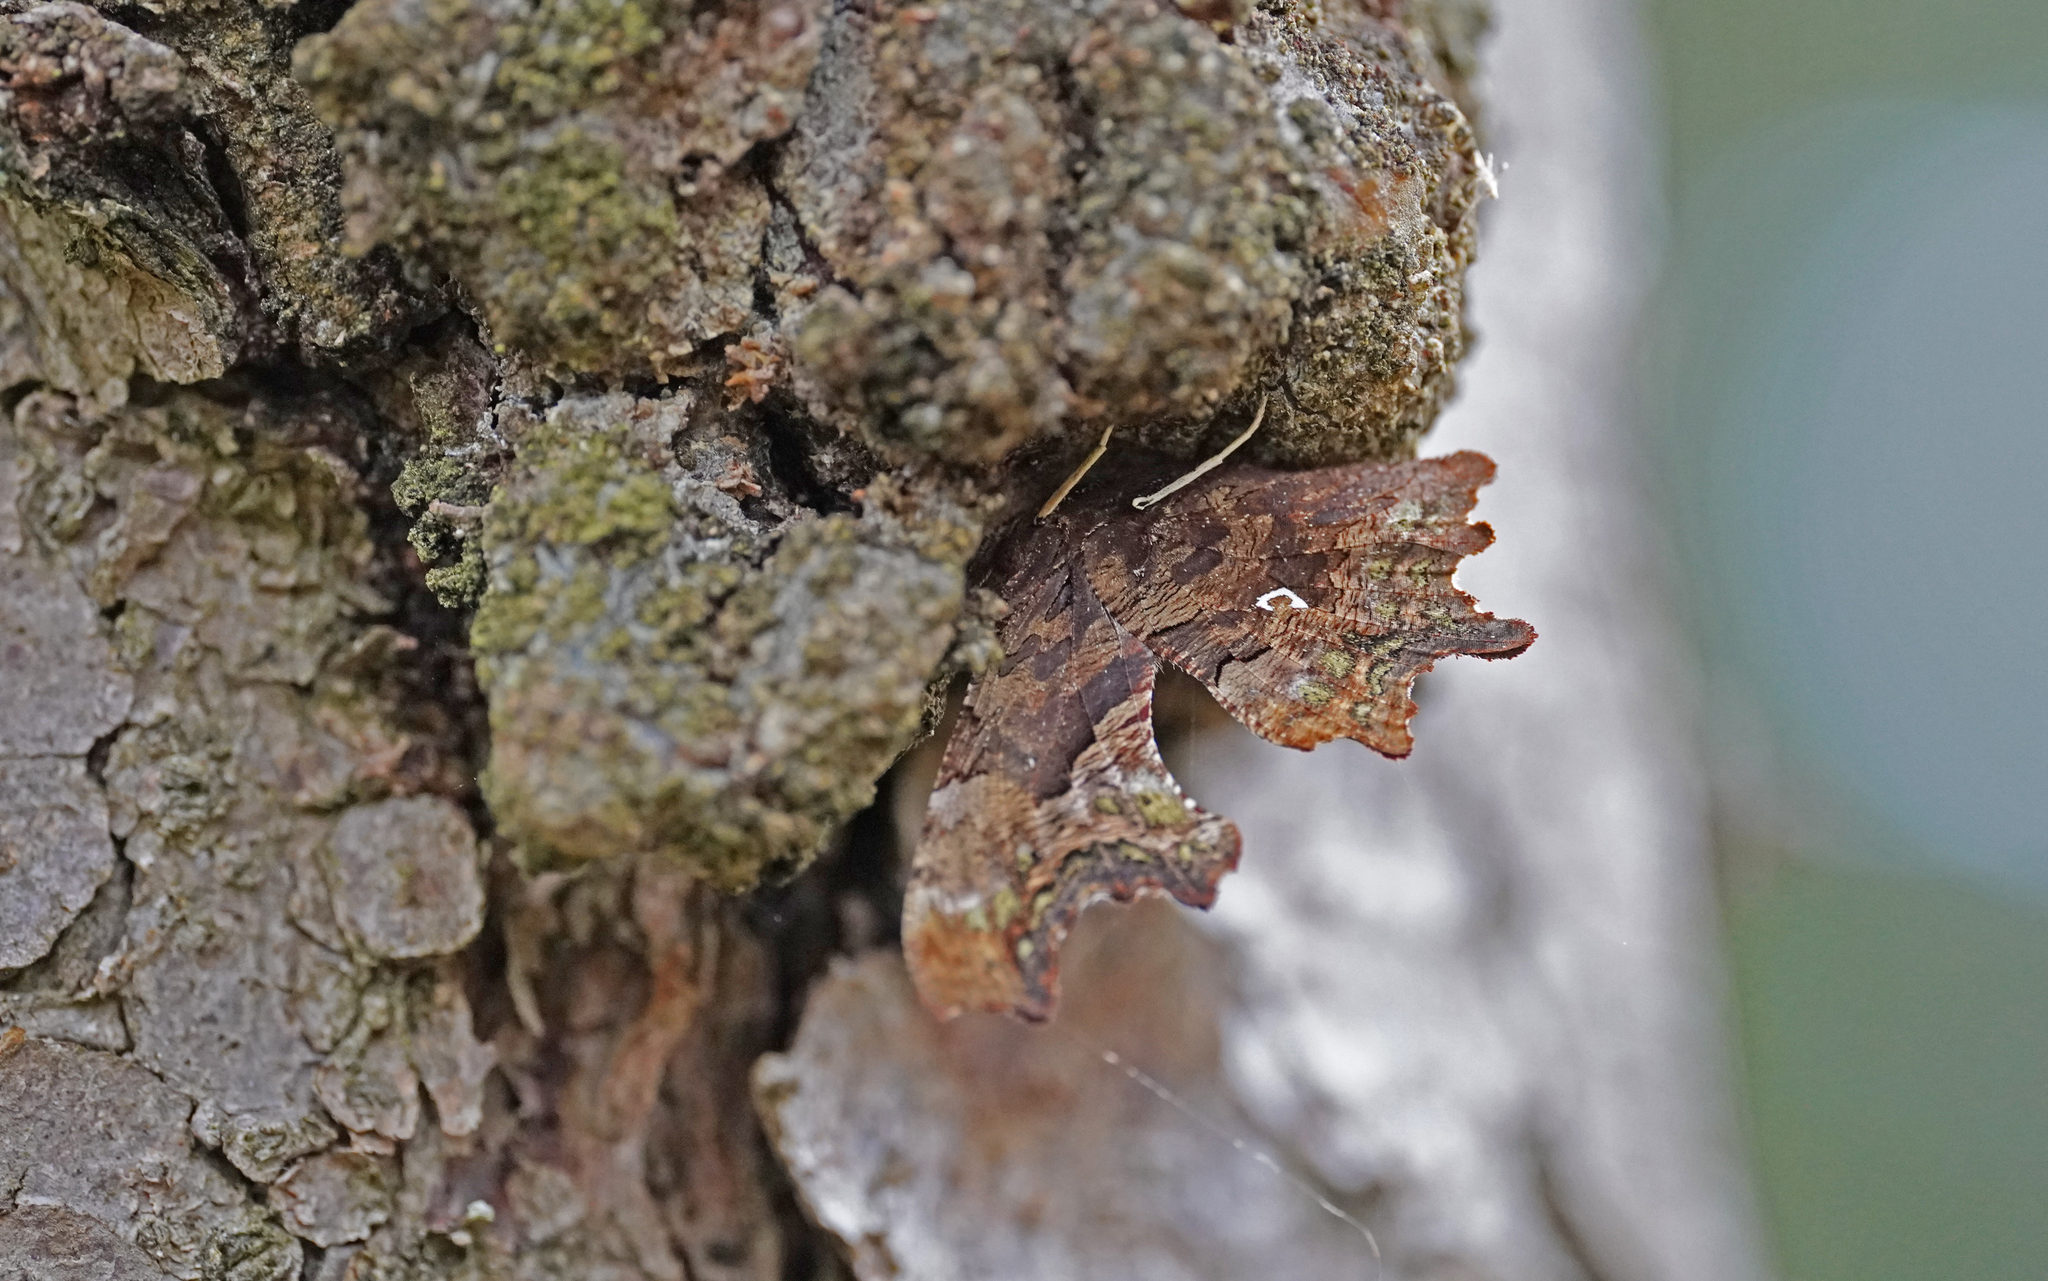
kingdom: Animalia
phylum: Arthropoda
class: Insecta
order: Lepidoptera
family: Nymphalidae
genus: Polygonia
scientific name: Polygonia c-album
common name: Comma
